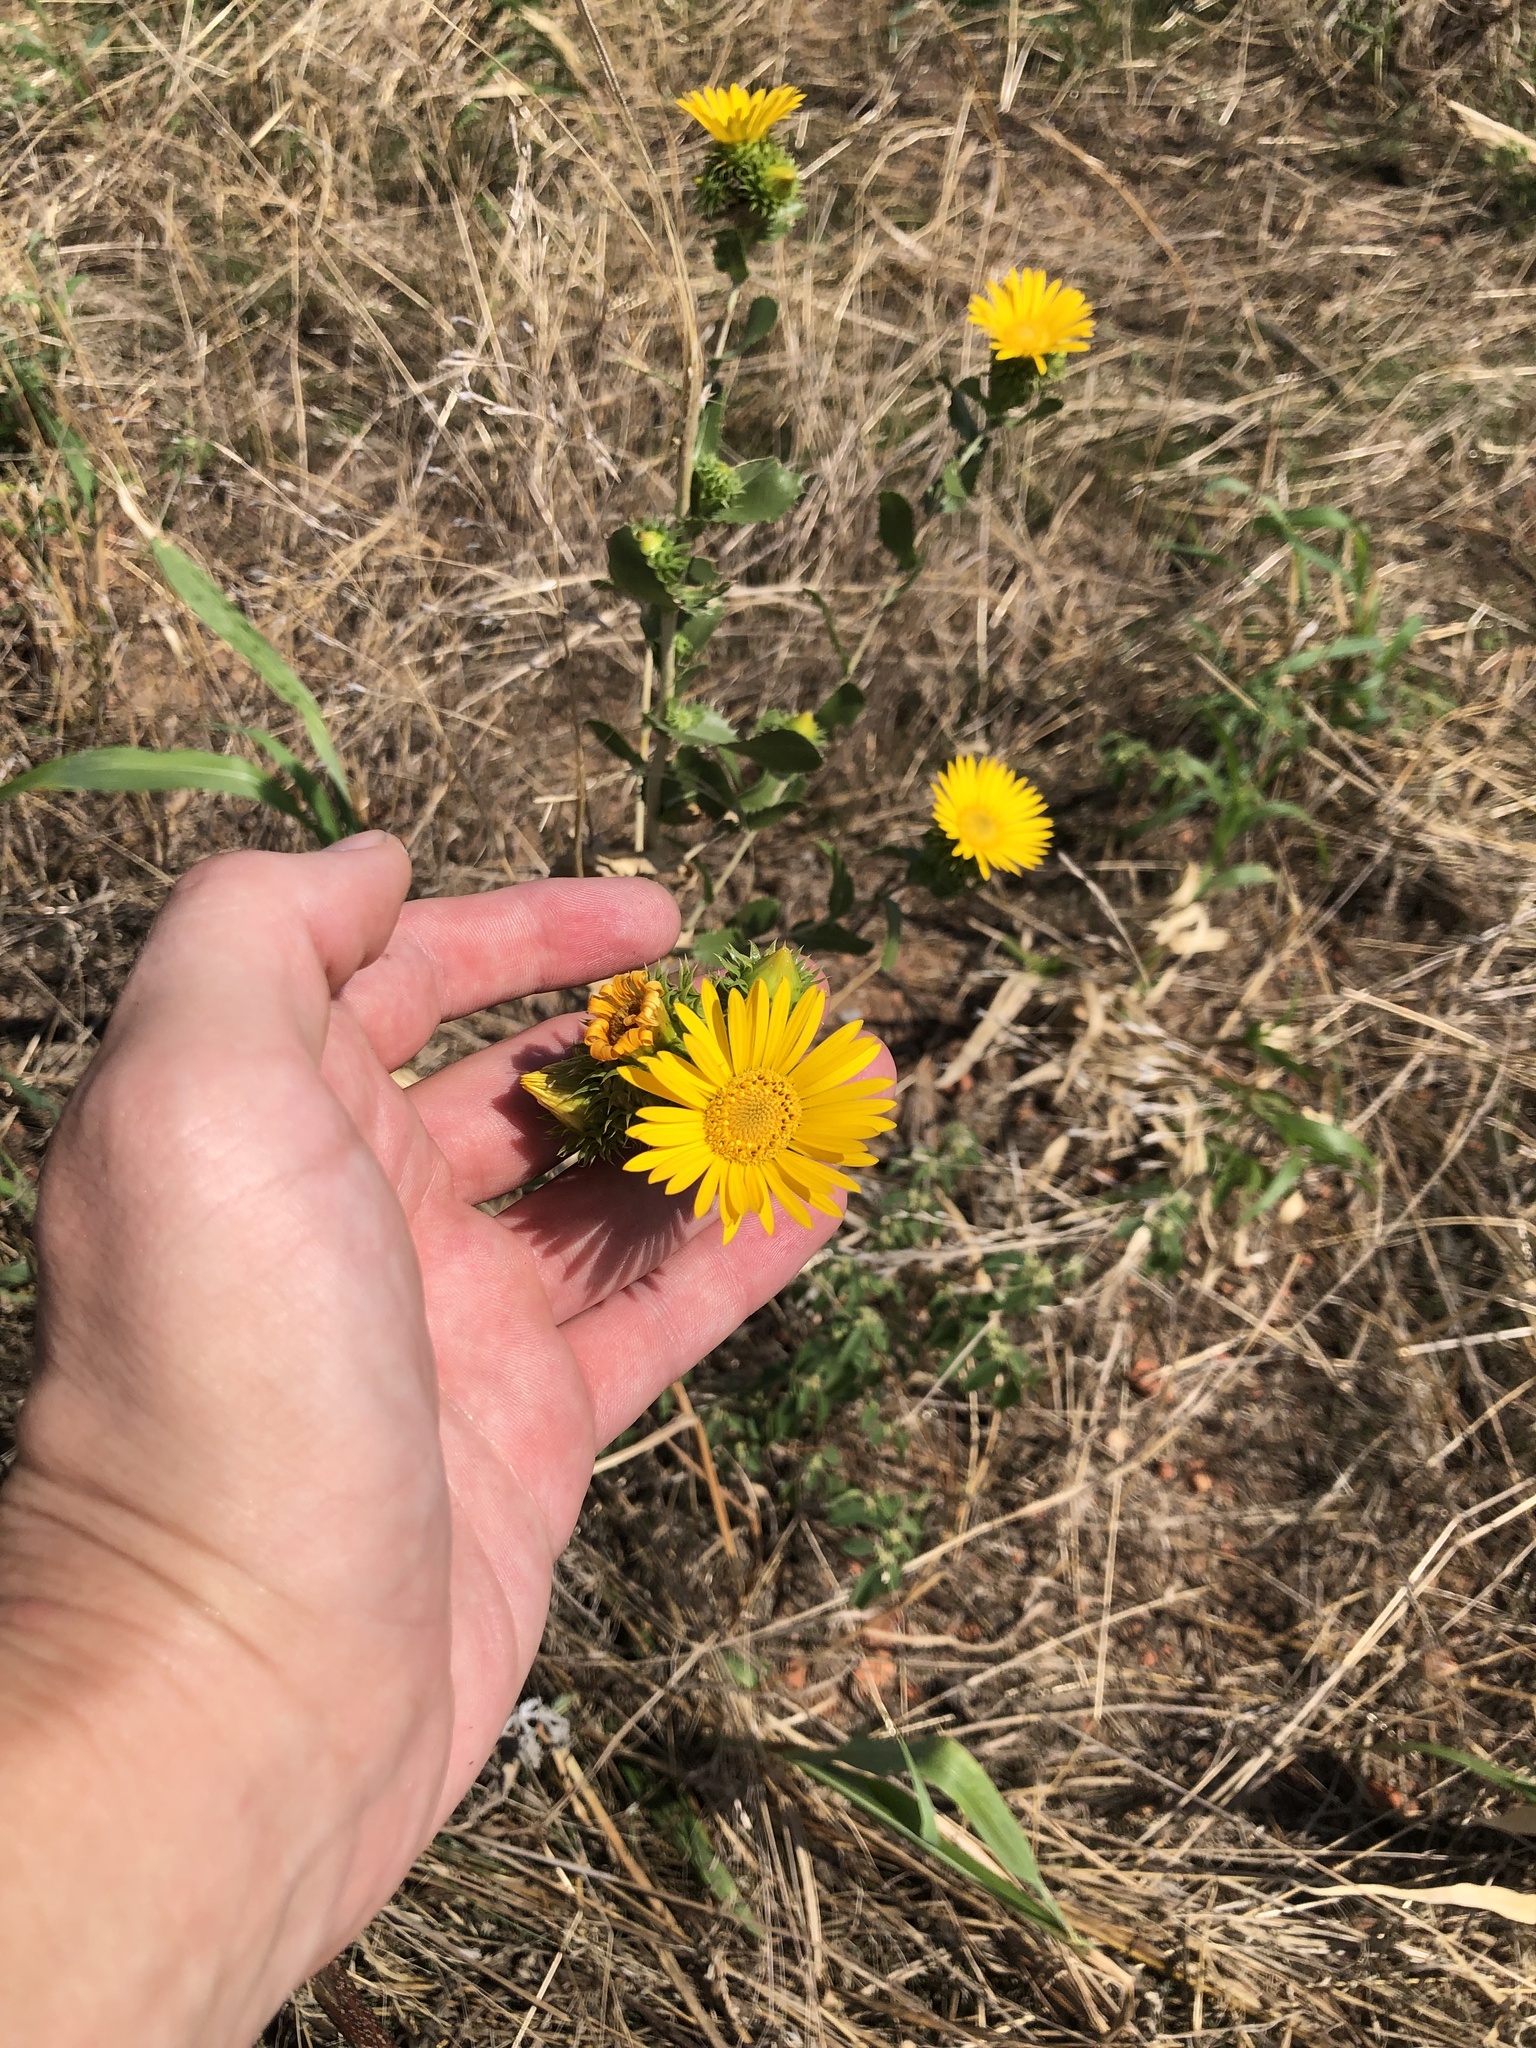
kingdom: Plantae
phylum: Tracheophyta
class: Magnoliopsida
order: Asterales
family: Asteraceae
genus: Grindelia
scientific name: Grindelia ciliata
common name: Goldenweed
